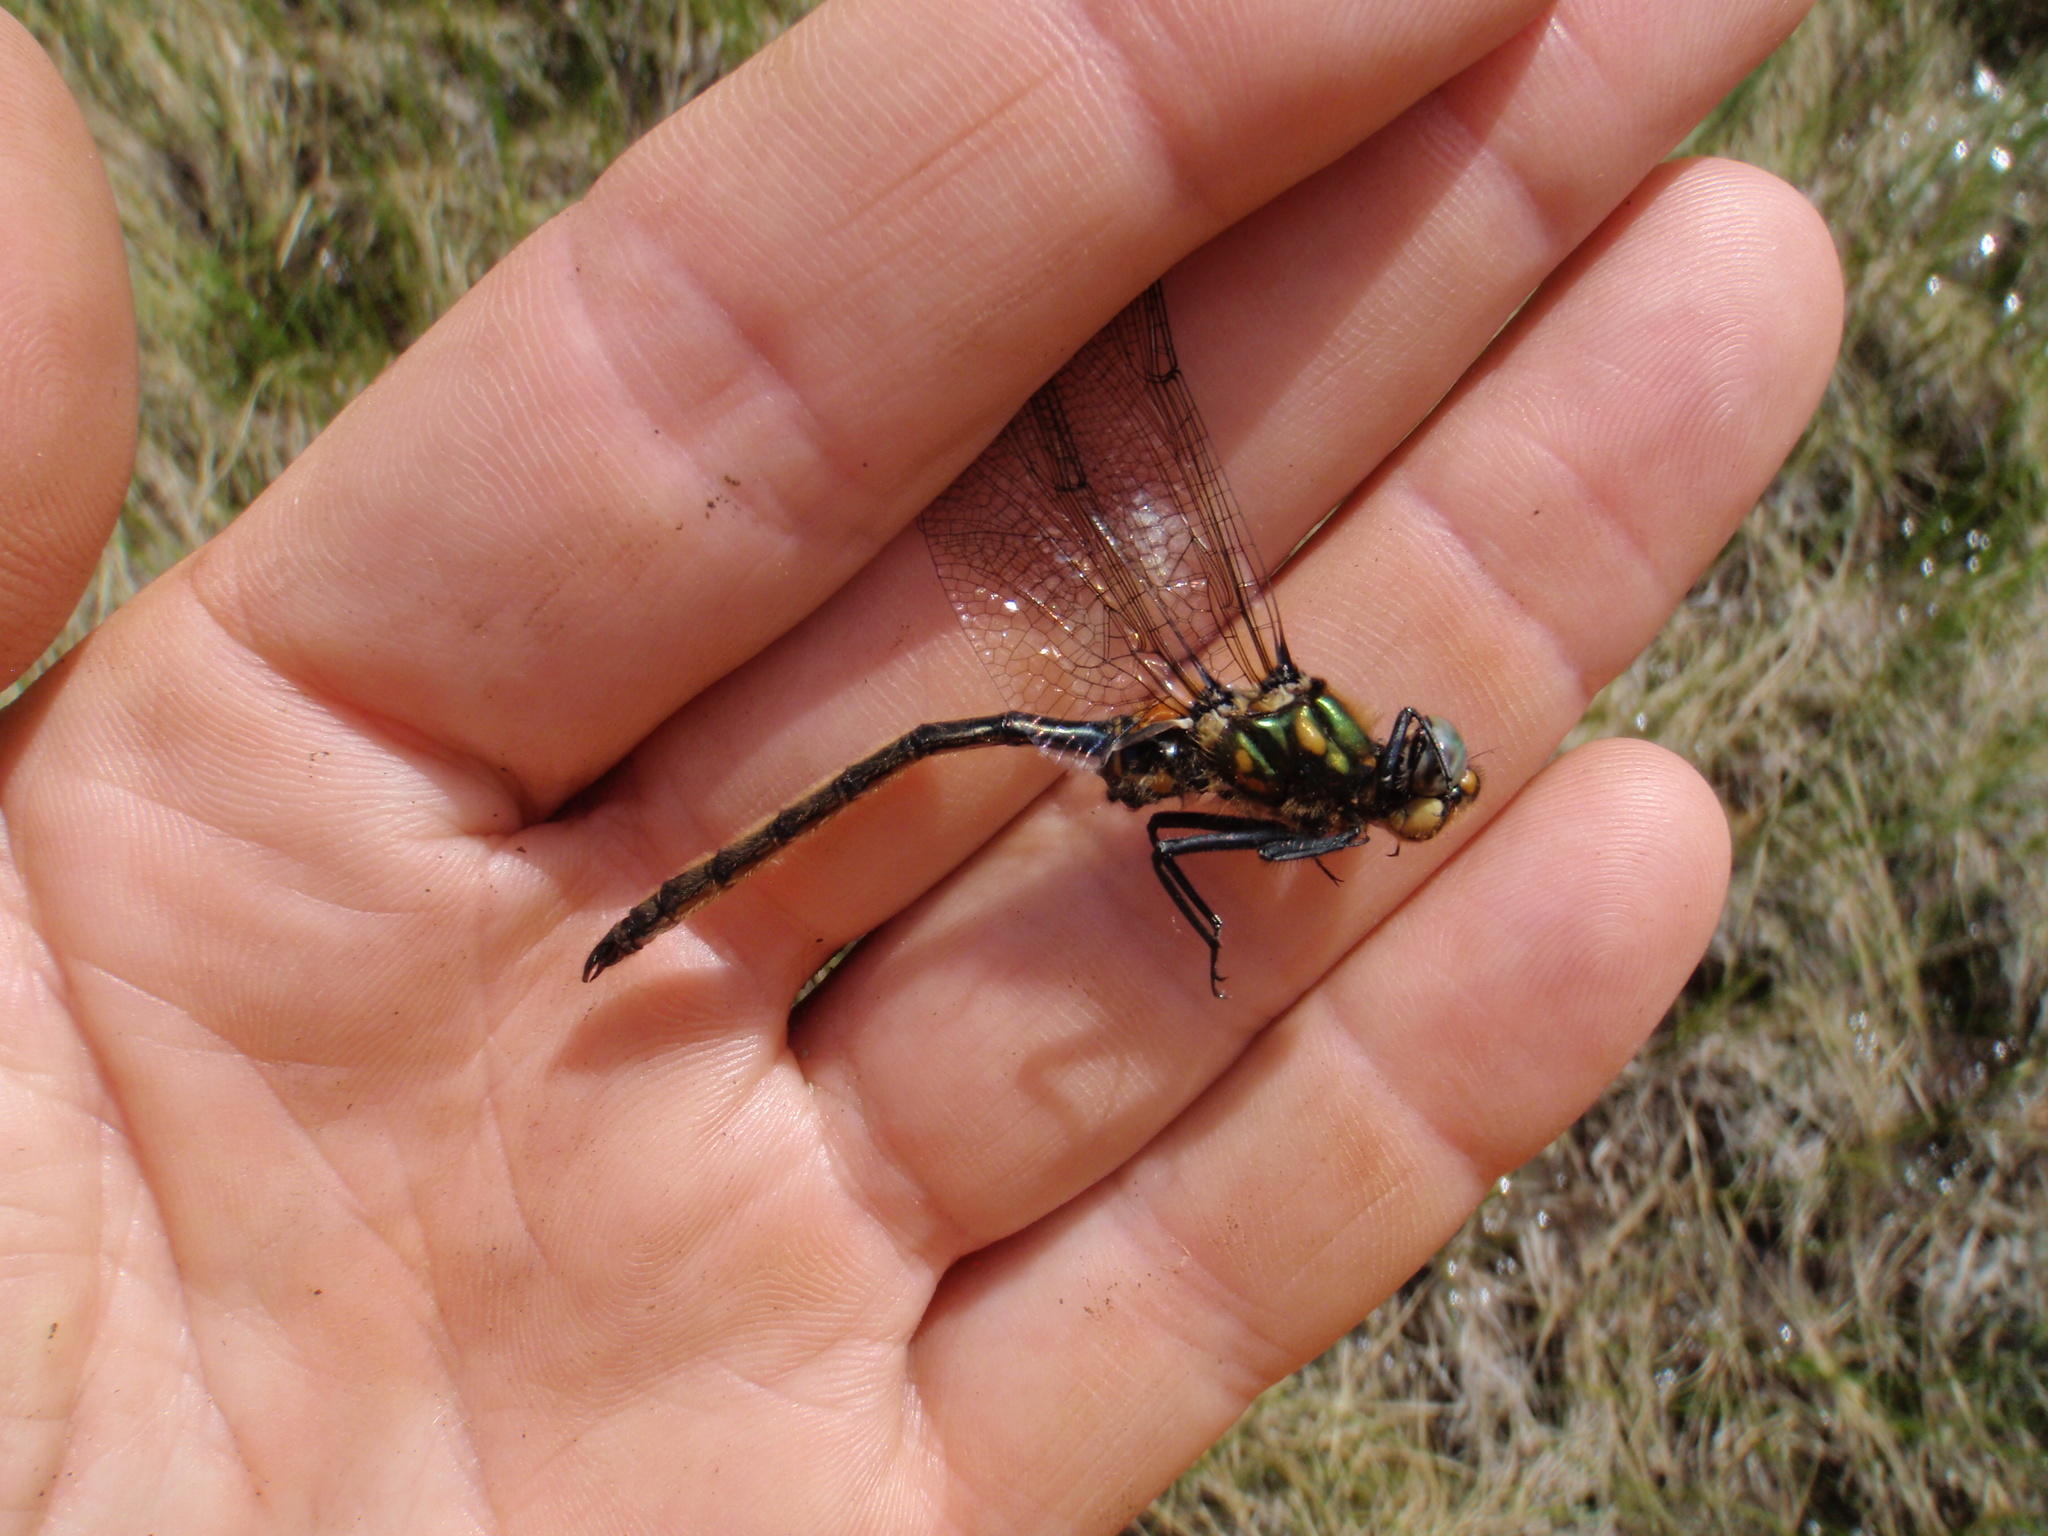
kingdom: Animalia
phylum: Arthropoda
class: Insecta
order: Odonata
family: Corduliidae
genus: Somatochlora
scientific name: Somatochlora semicircularis
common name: Mountain emerald
